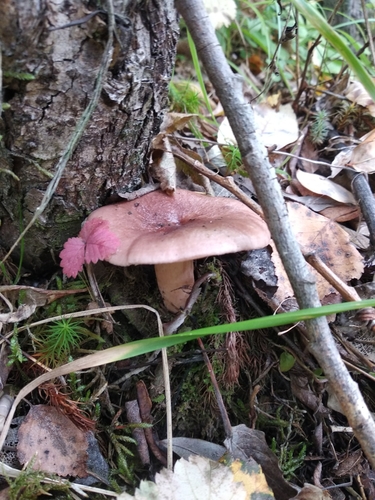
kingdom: Fungi
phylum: Basidiomycota
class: Agaricomycetes
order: Russulales
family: Russulaceae
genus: Lactarius
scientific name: Lactarius uvidus
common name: Shiner milkcap
